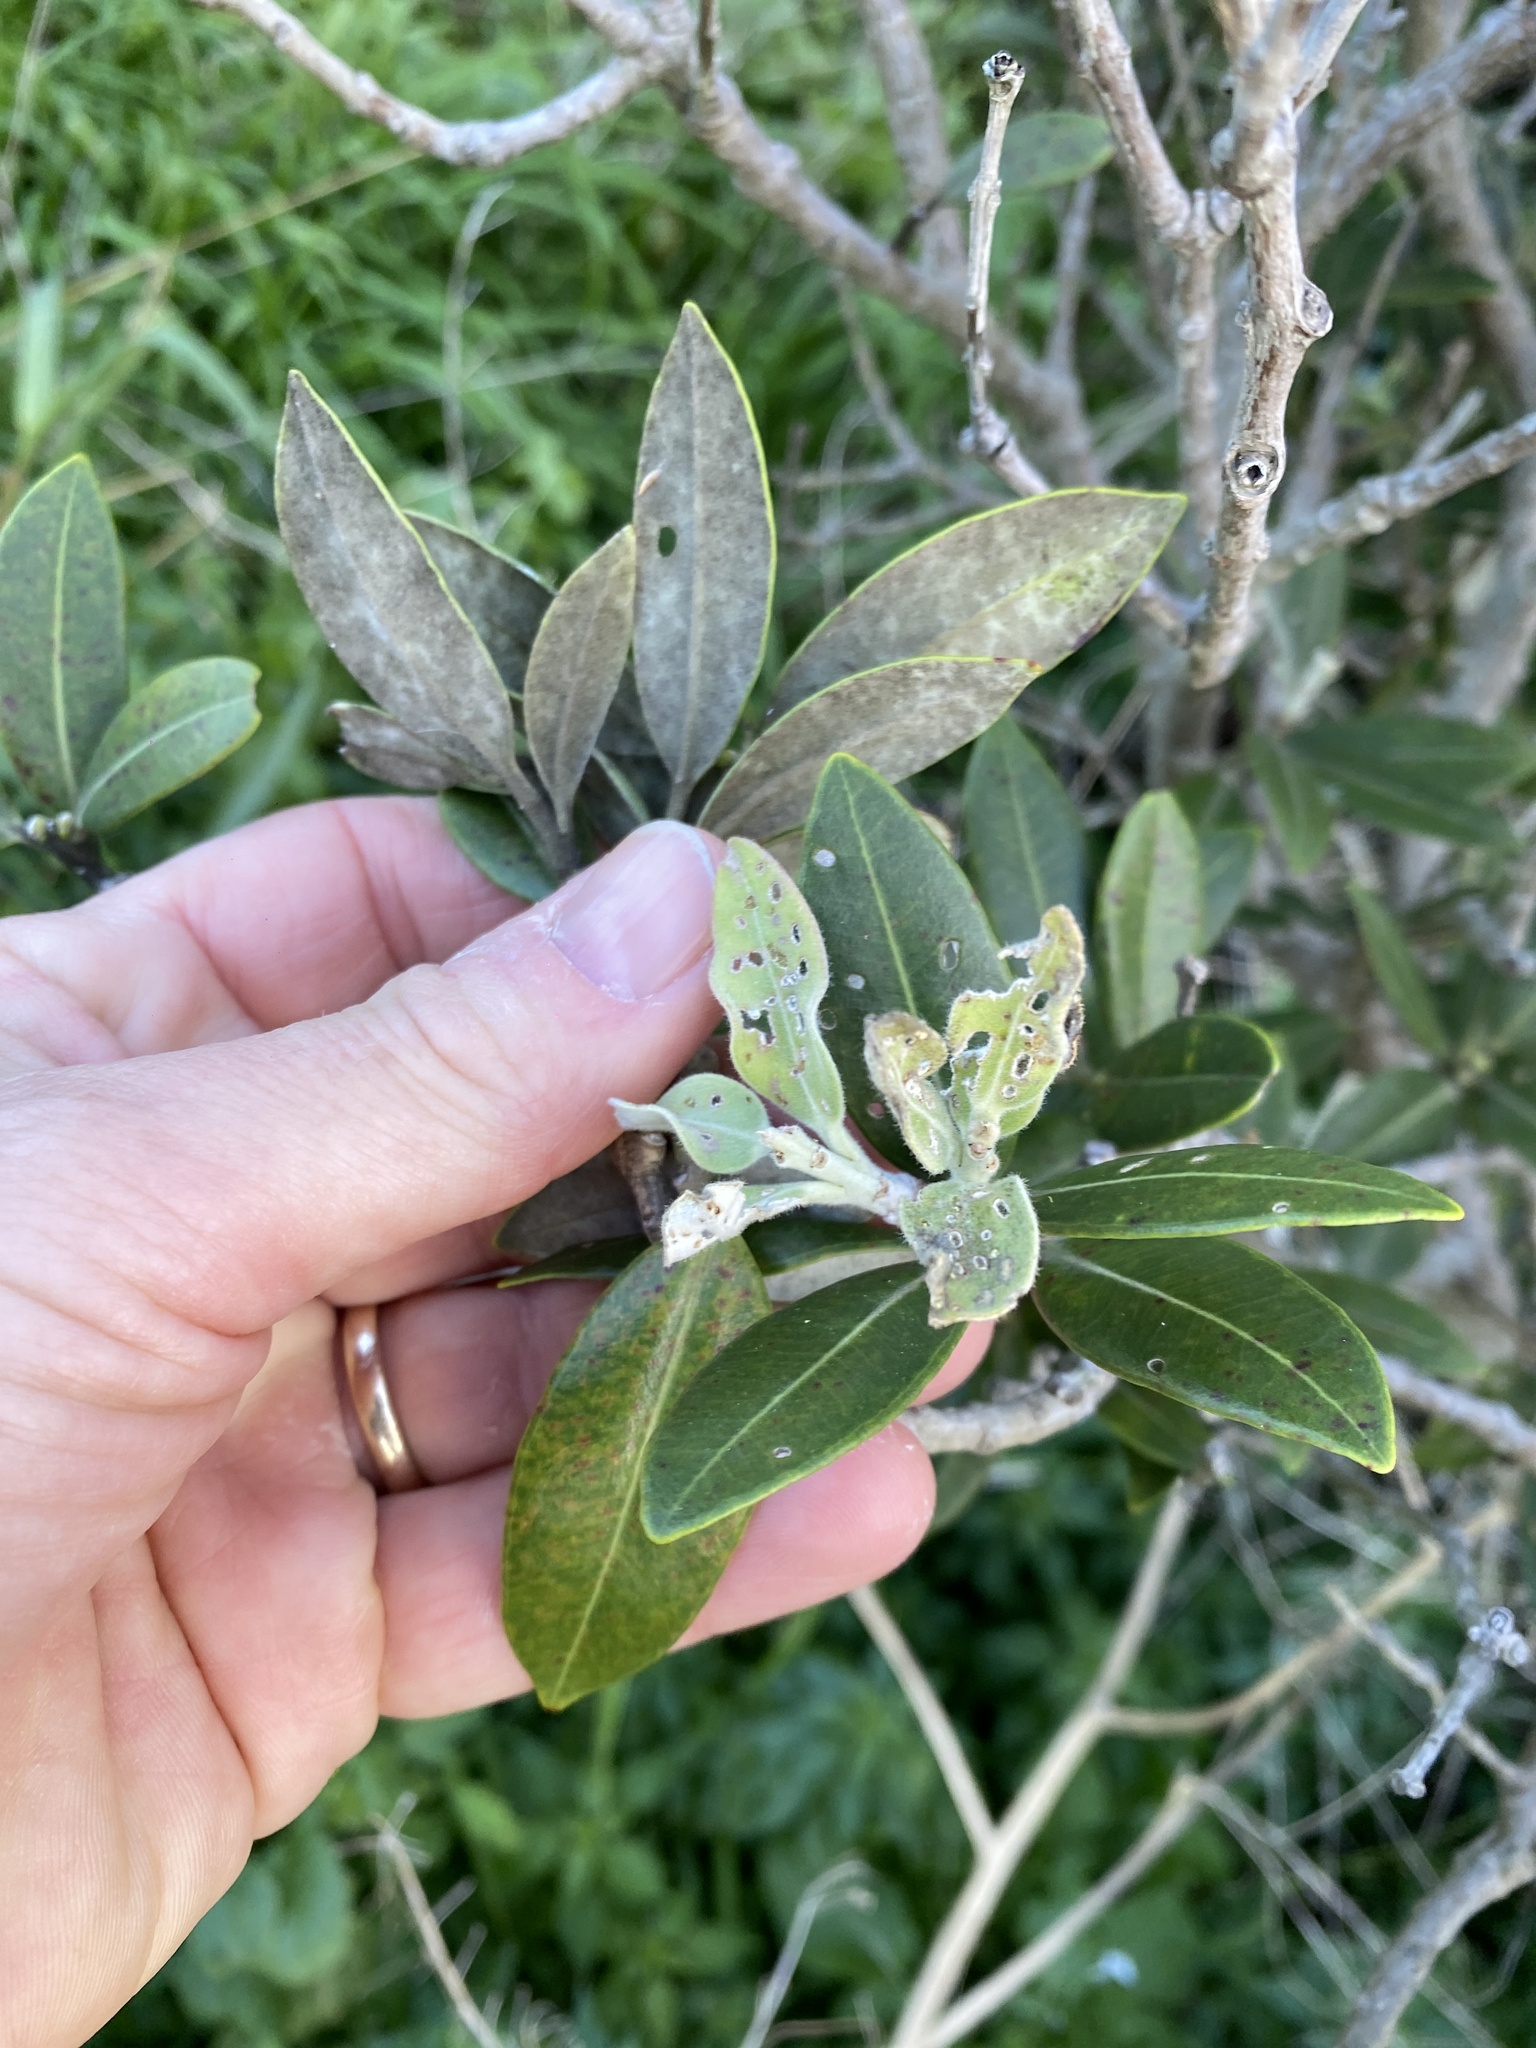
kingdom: Plantae
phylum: Tracheophyta
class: Magnoliopsida
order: Myrtales
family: Myrtaceae
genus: Metrosideros
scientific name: Metrosideros excelsa
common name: New zealand christmastree
